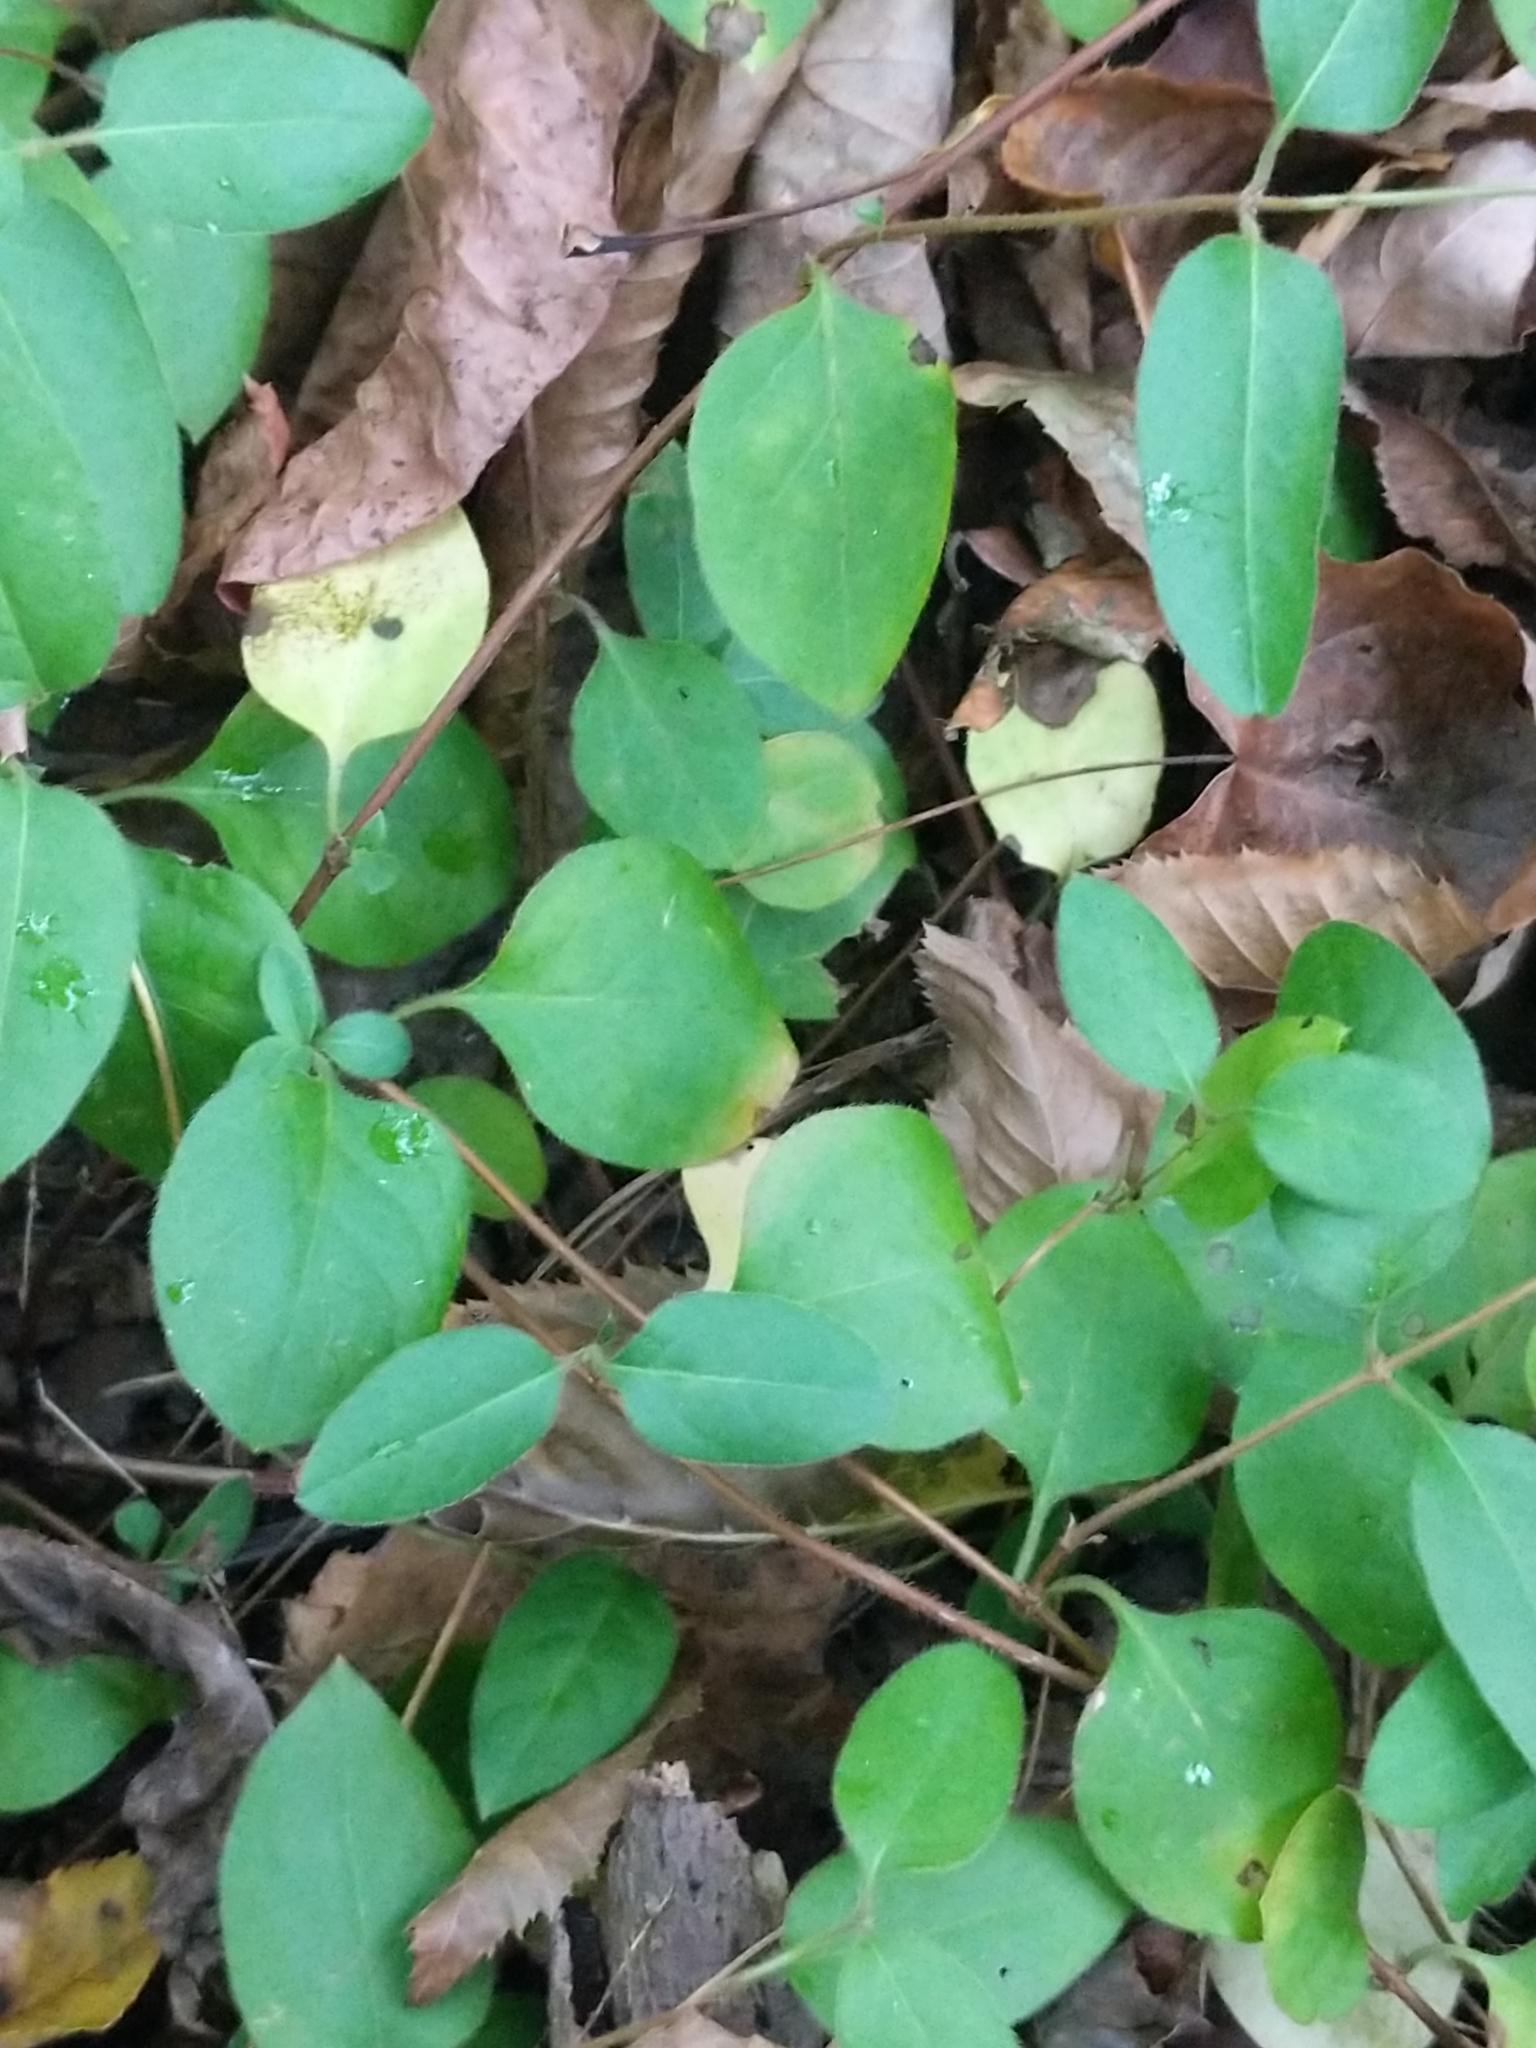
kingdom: Plantae
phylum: Tracheophyta
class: Magnoliopsida
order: Dipsacales
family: Caprifoliaceae
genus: Lonicera
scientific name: Lonicera japonica
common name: Japanese honeysuckle
